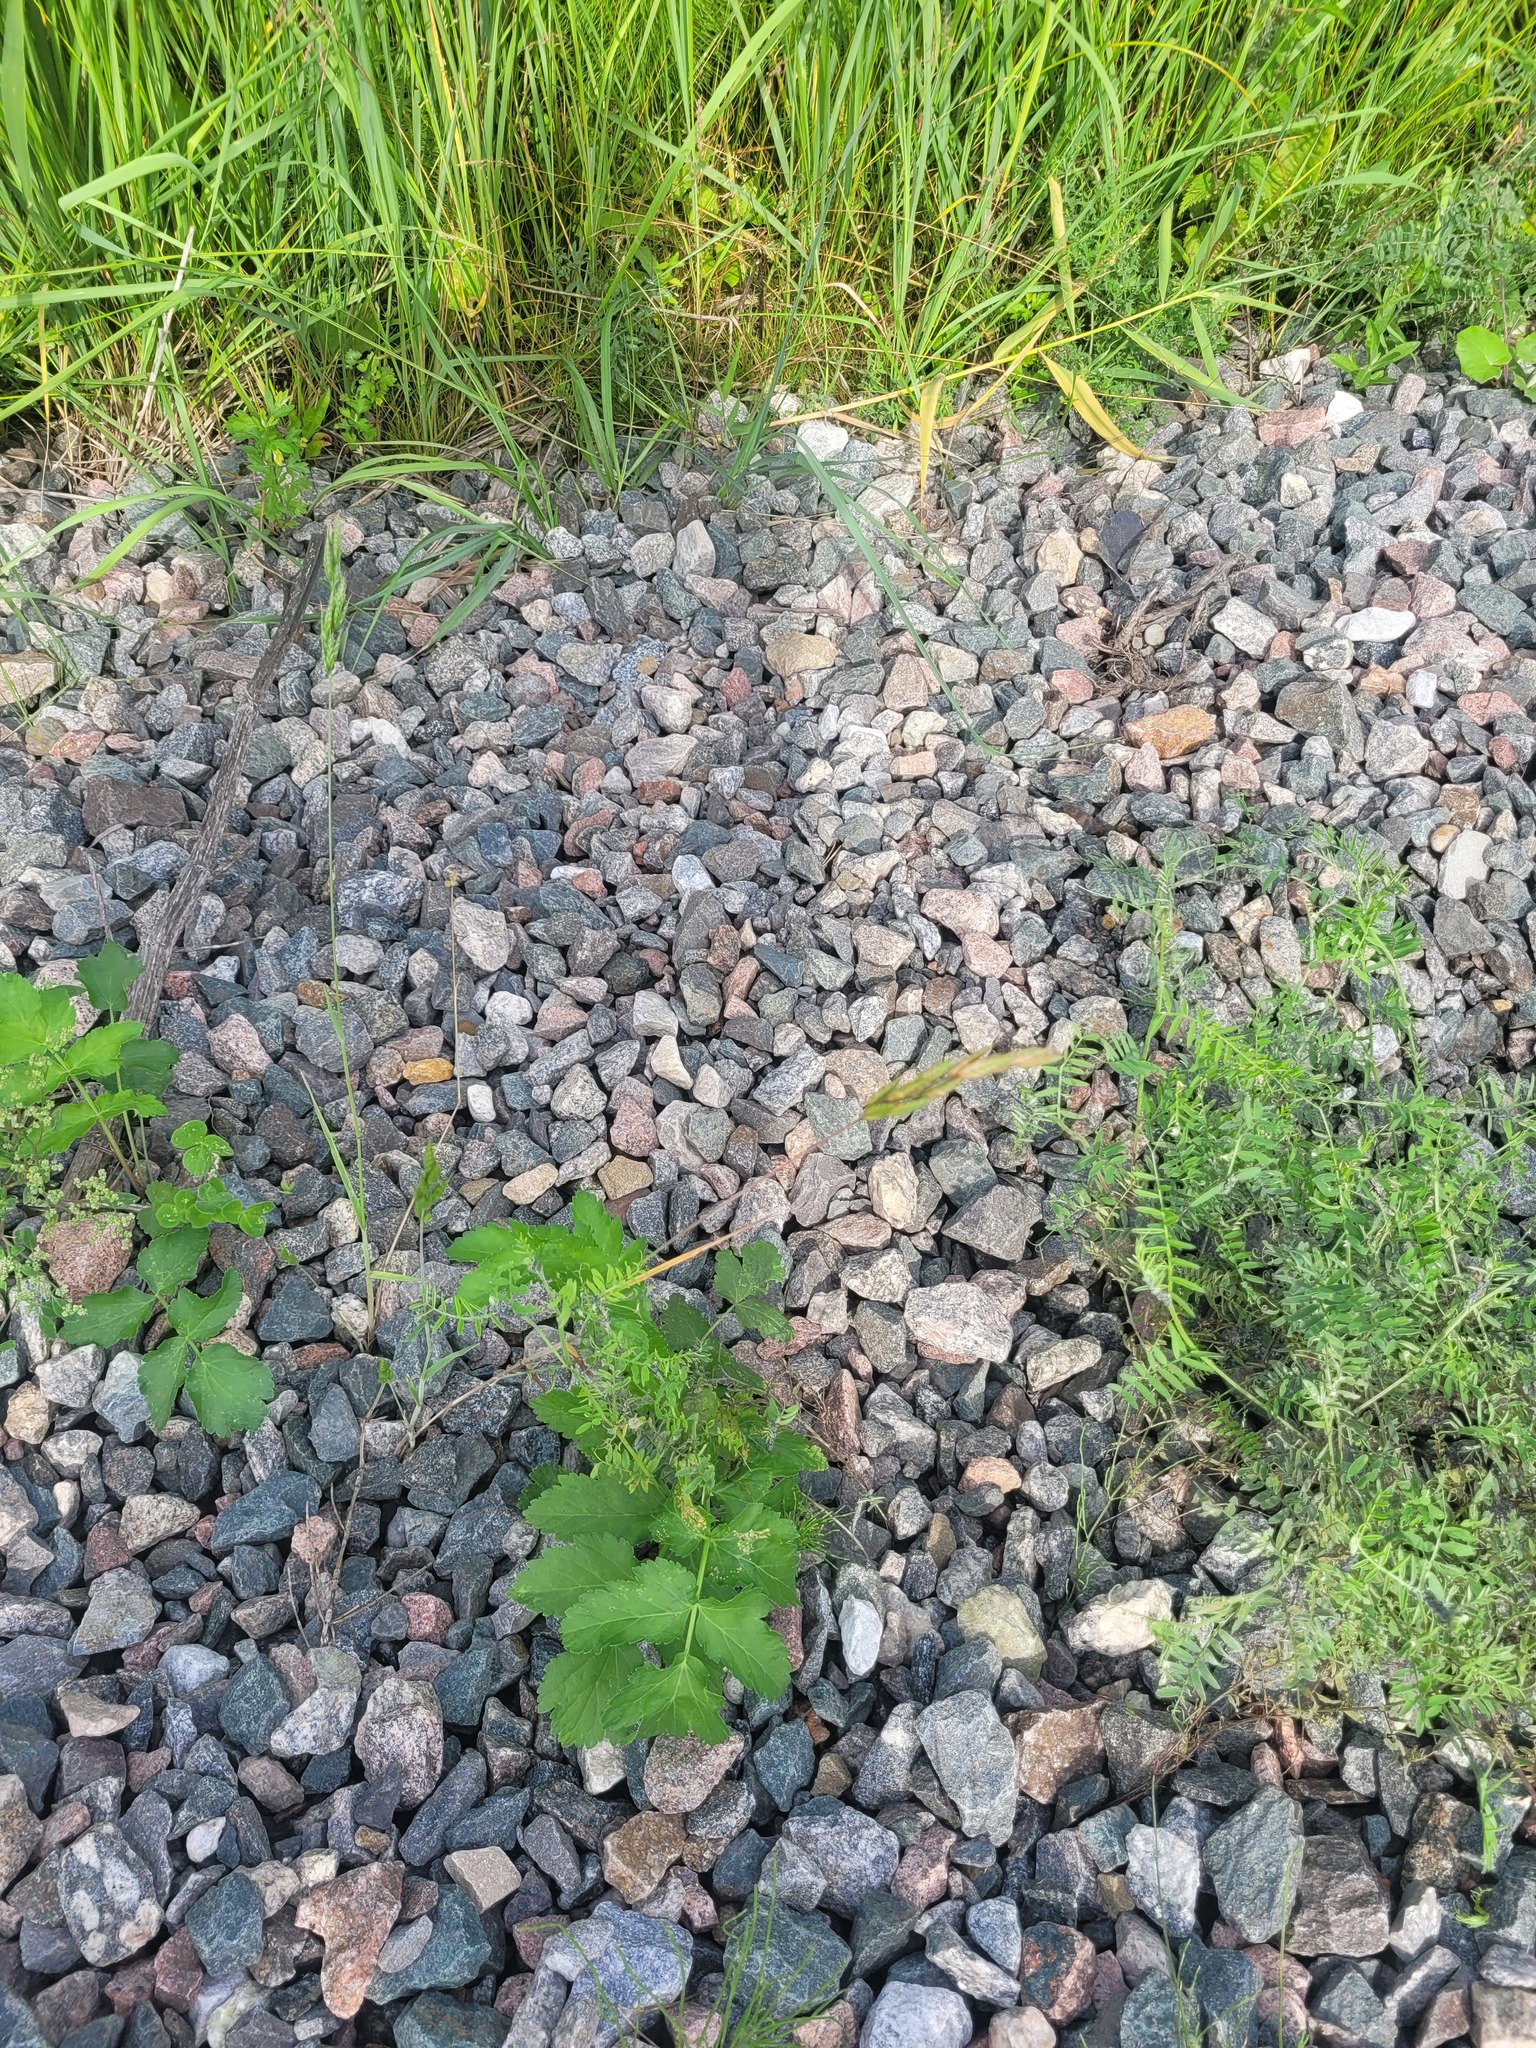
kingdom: Plantae
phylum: Tracheophyta
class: Liliopsida
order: Poales
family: Poaceae
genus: Bromus
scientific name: Bromus hordeaceus
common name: Soft brome
